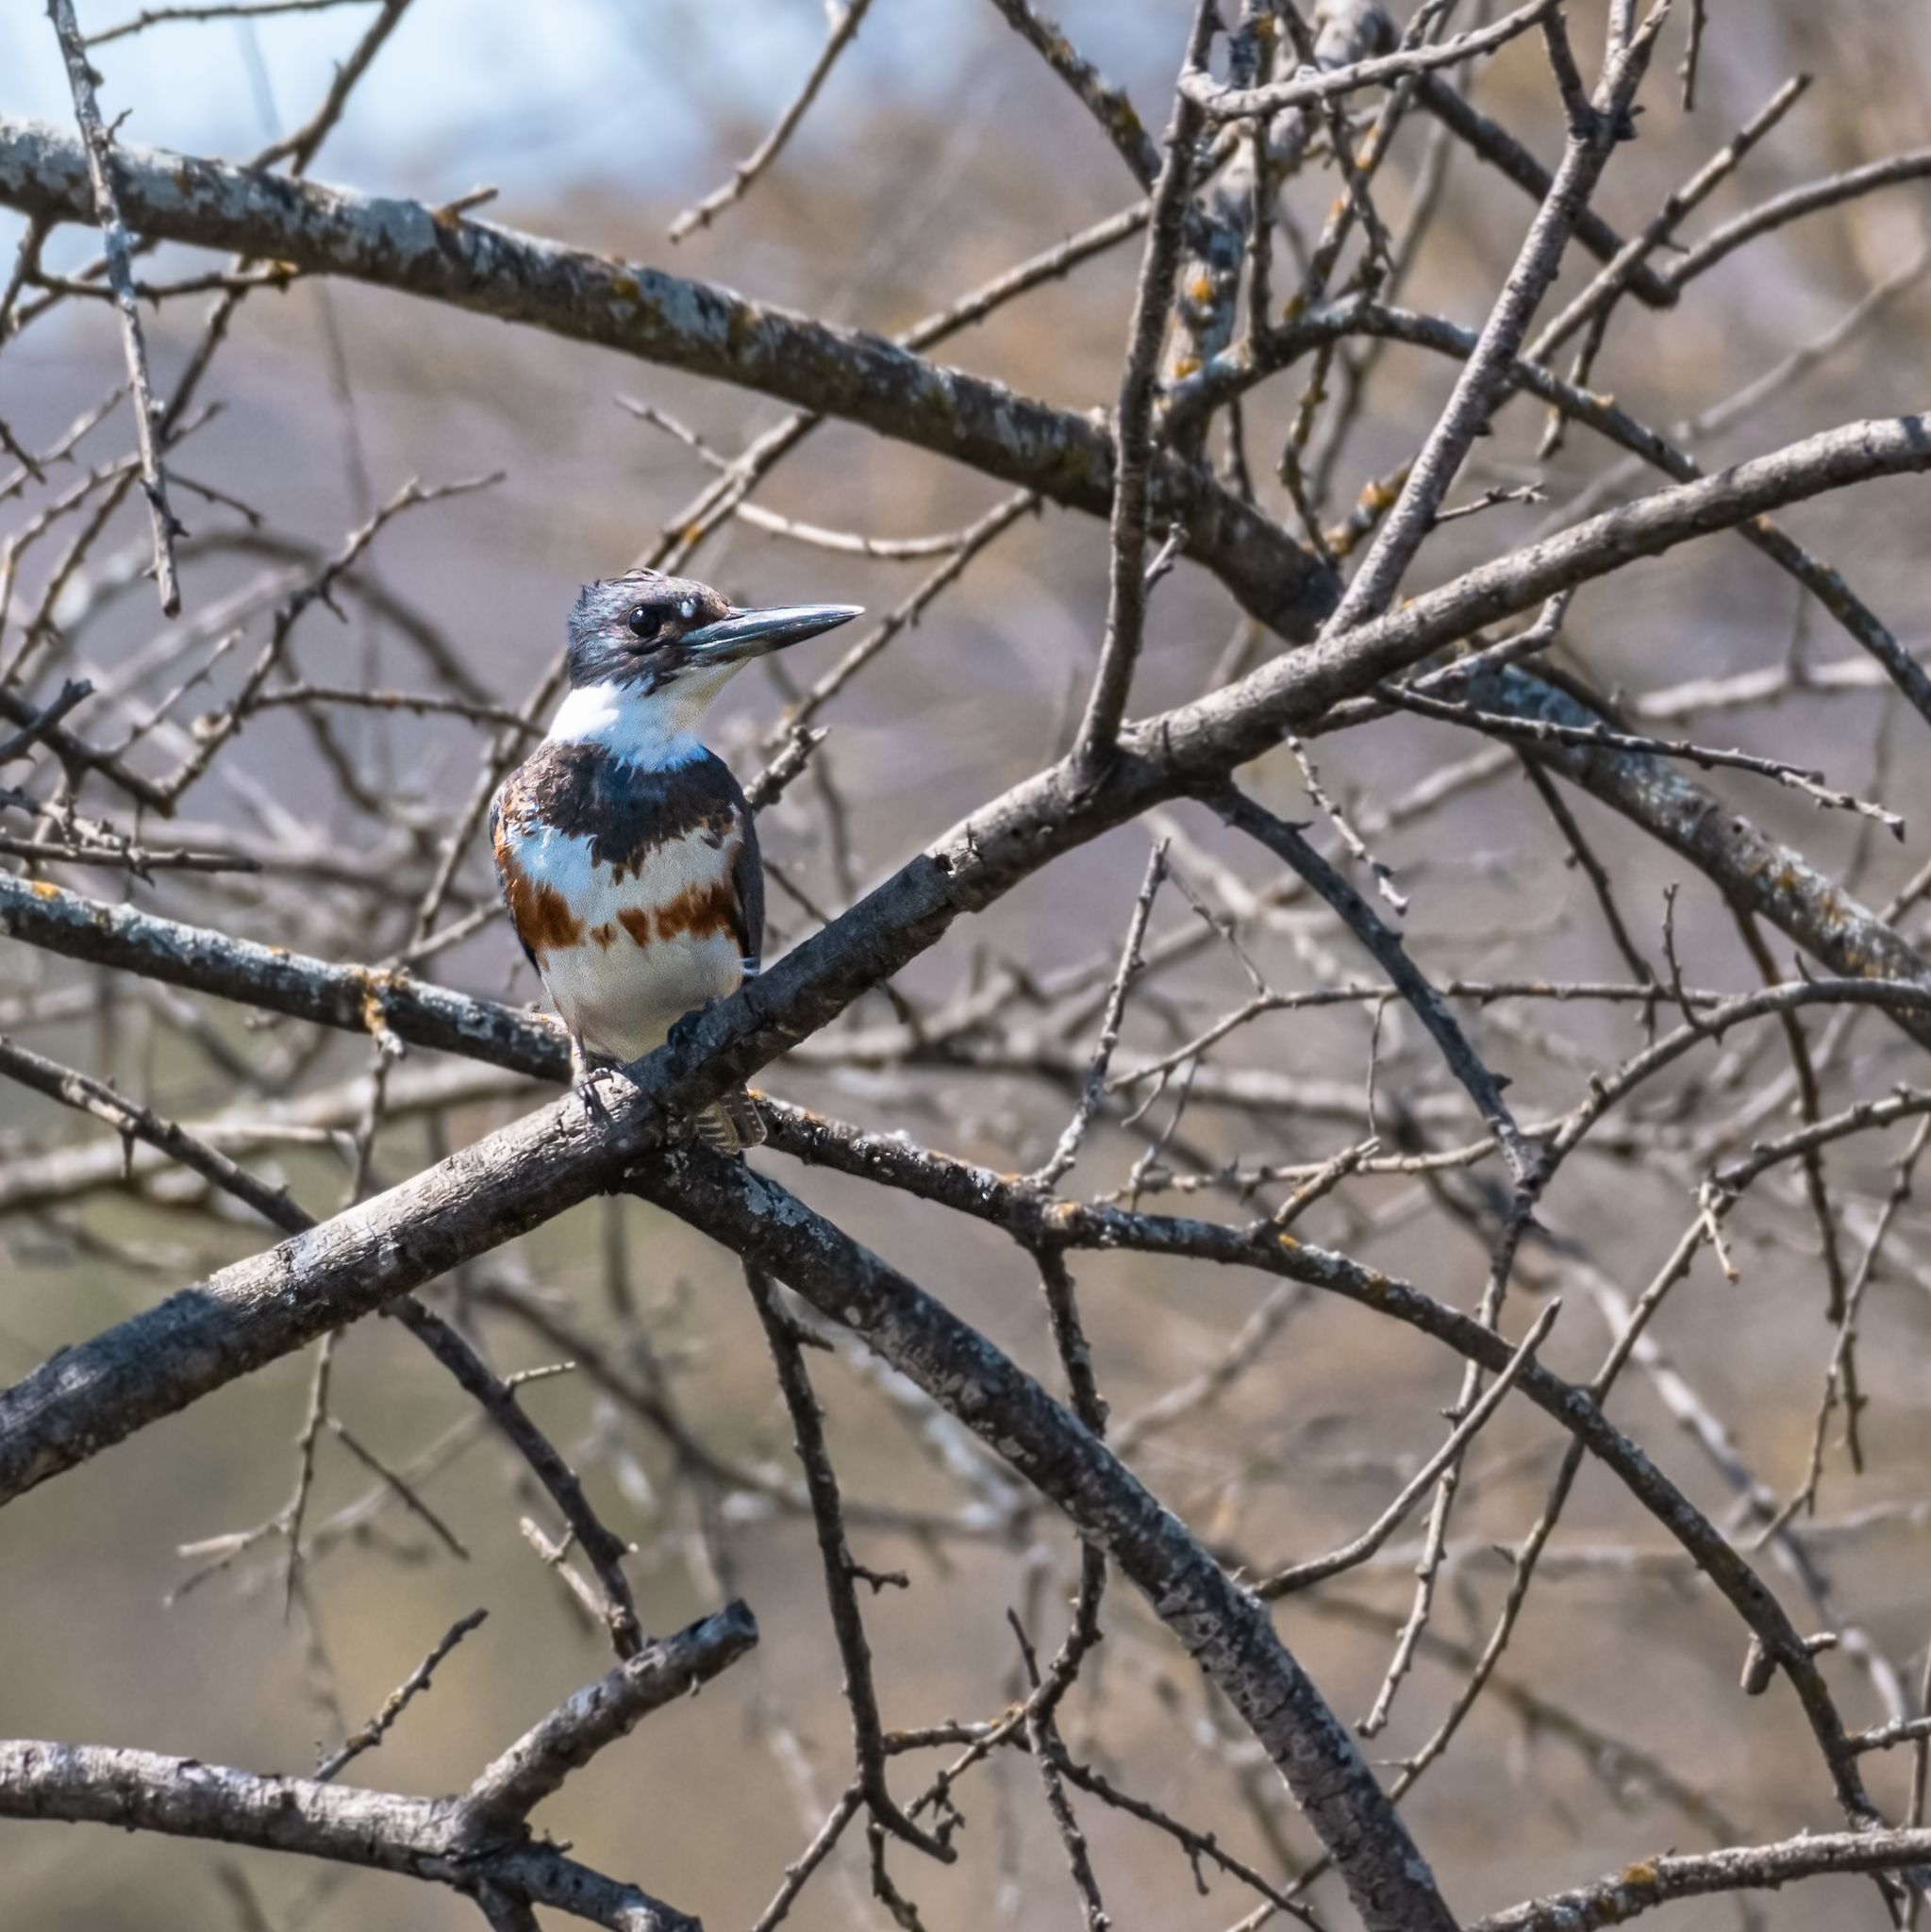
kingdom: Animalia
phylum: Chordata
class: Aves
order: Coraciiformes
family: Alcedinidae
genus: Megaceryle
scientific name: Megaceryle alcyon
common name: Belted kingfisher
